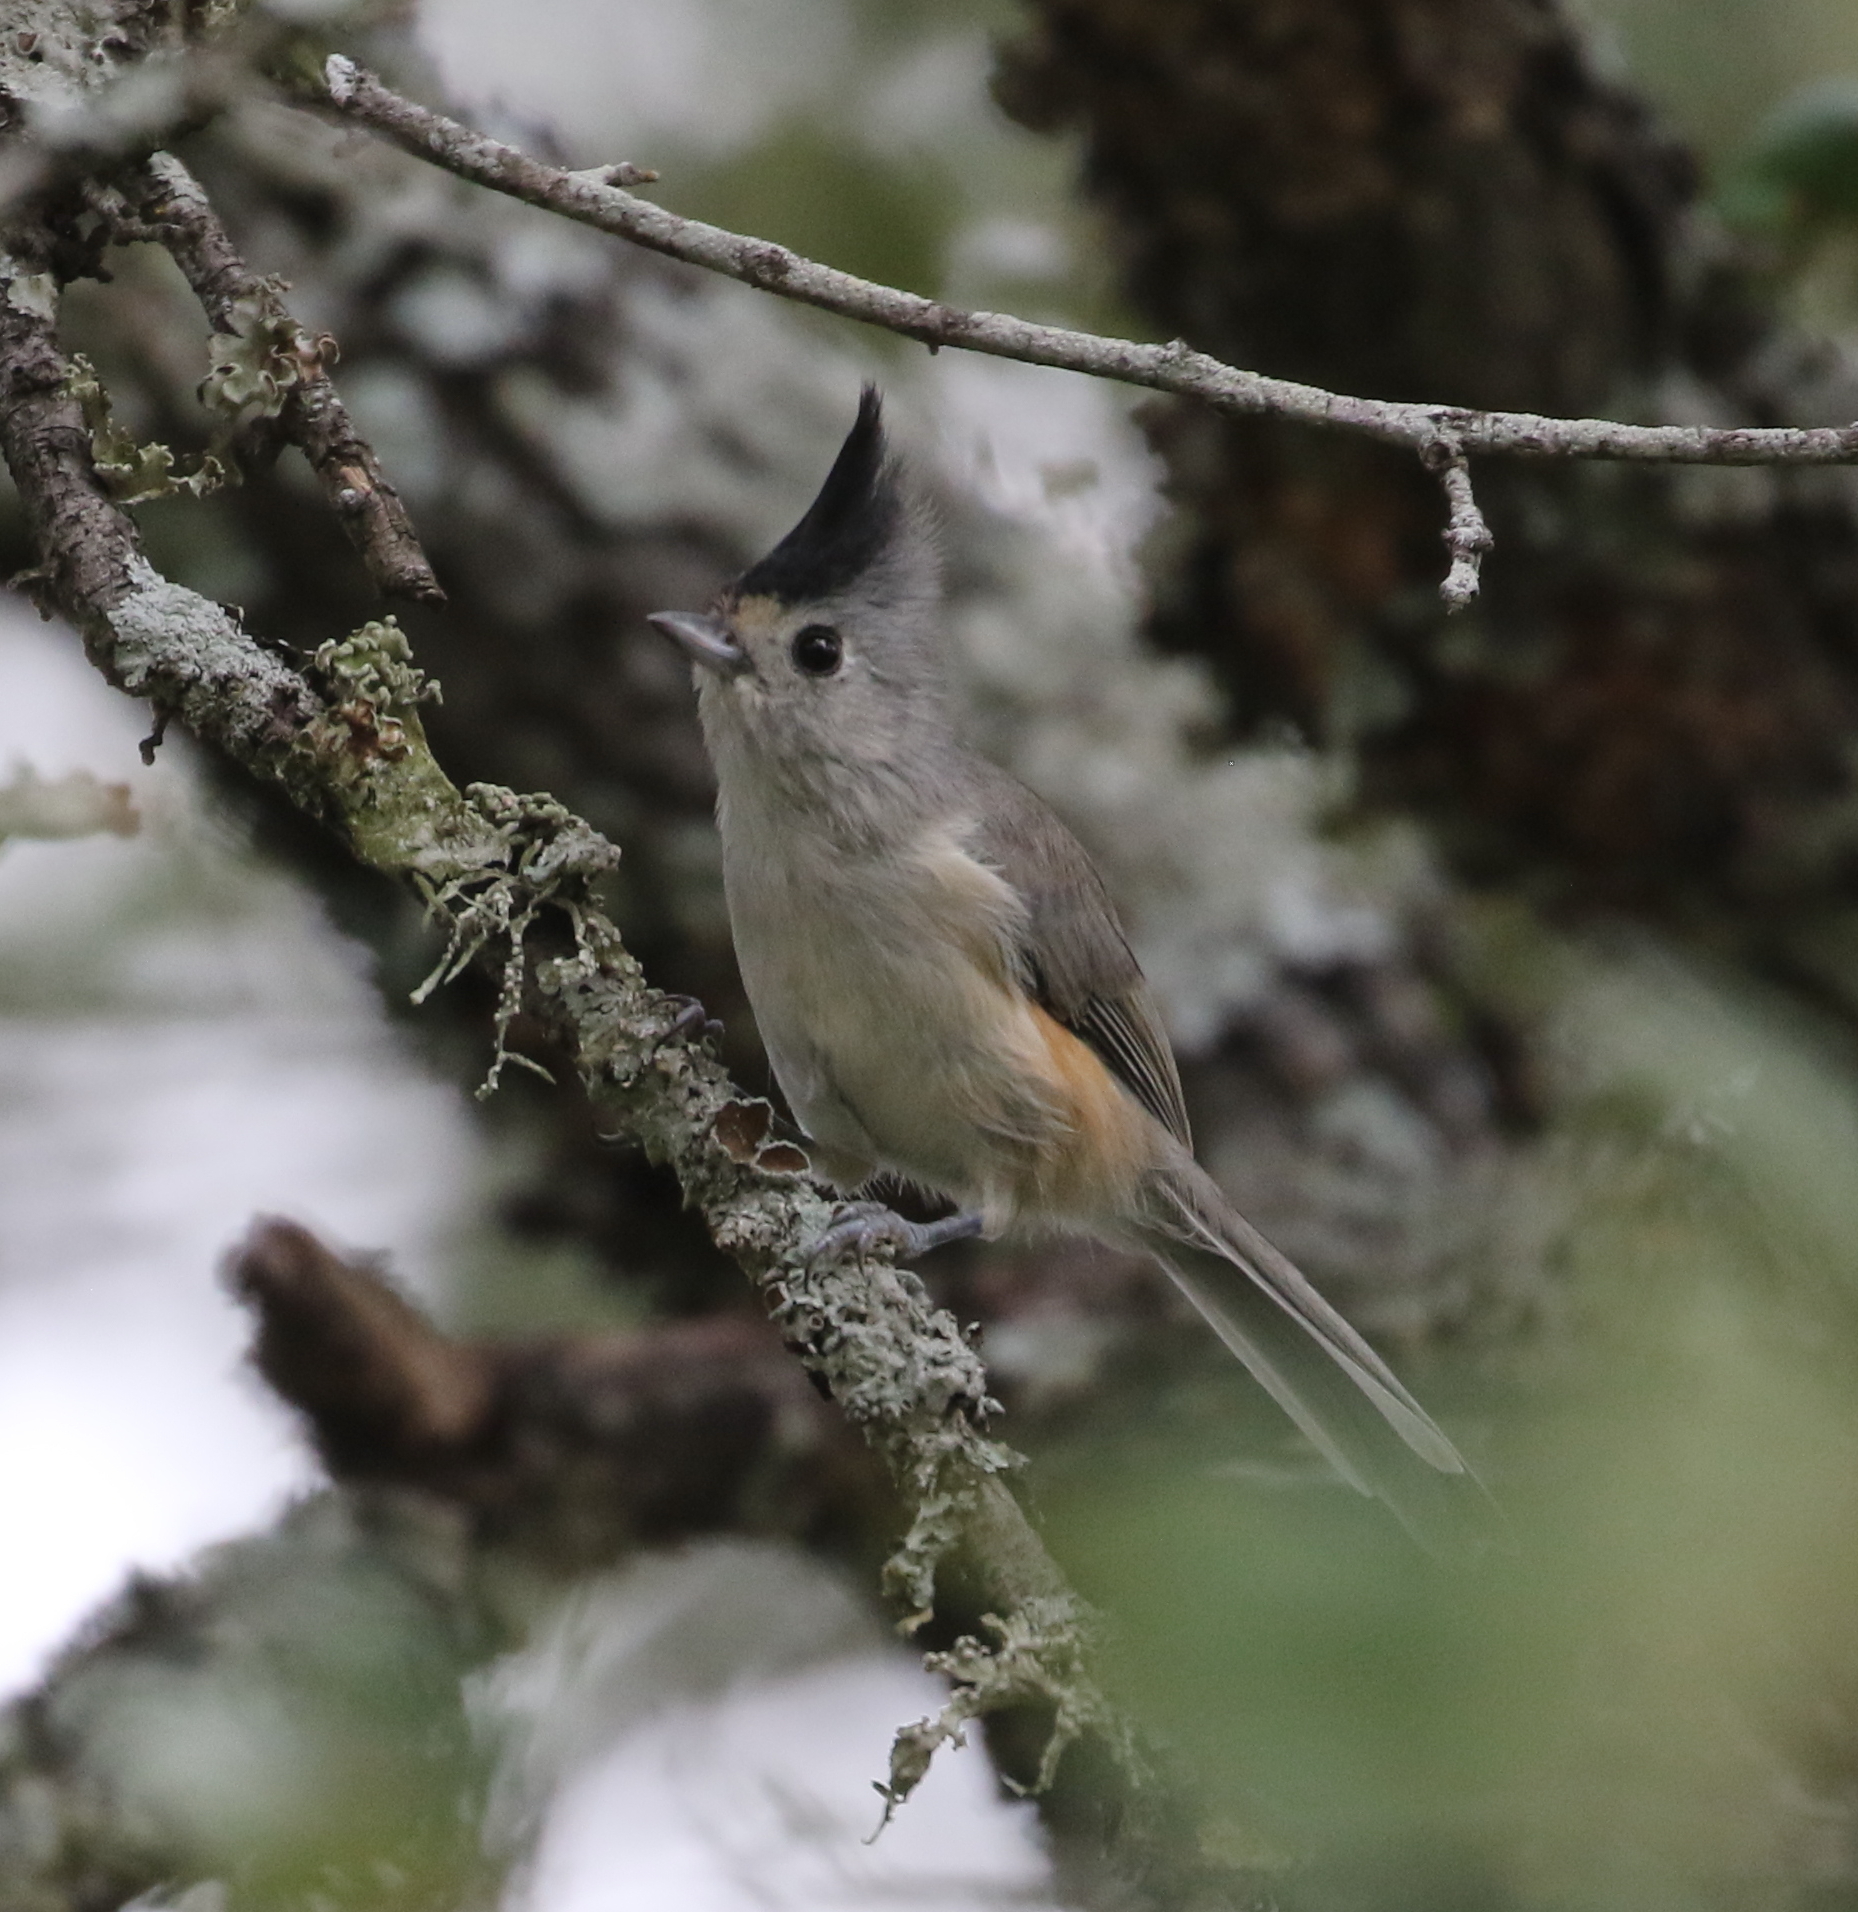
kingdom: Animalia
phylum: Chordata
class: Aves
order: Passeriformes
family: Paridae
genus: Baeolophus
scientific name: Baeolophus atricristatus
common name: Black-crested titmouse
